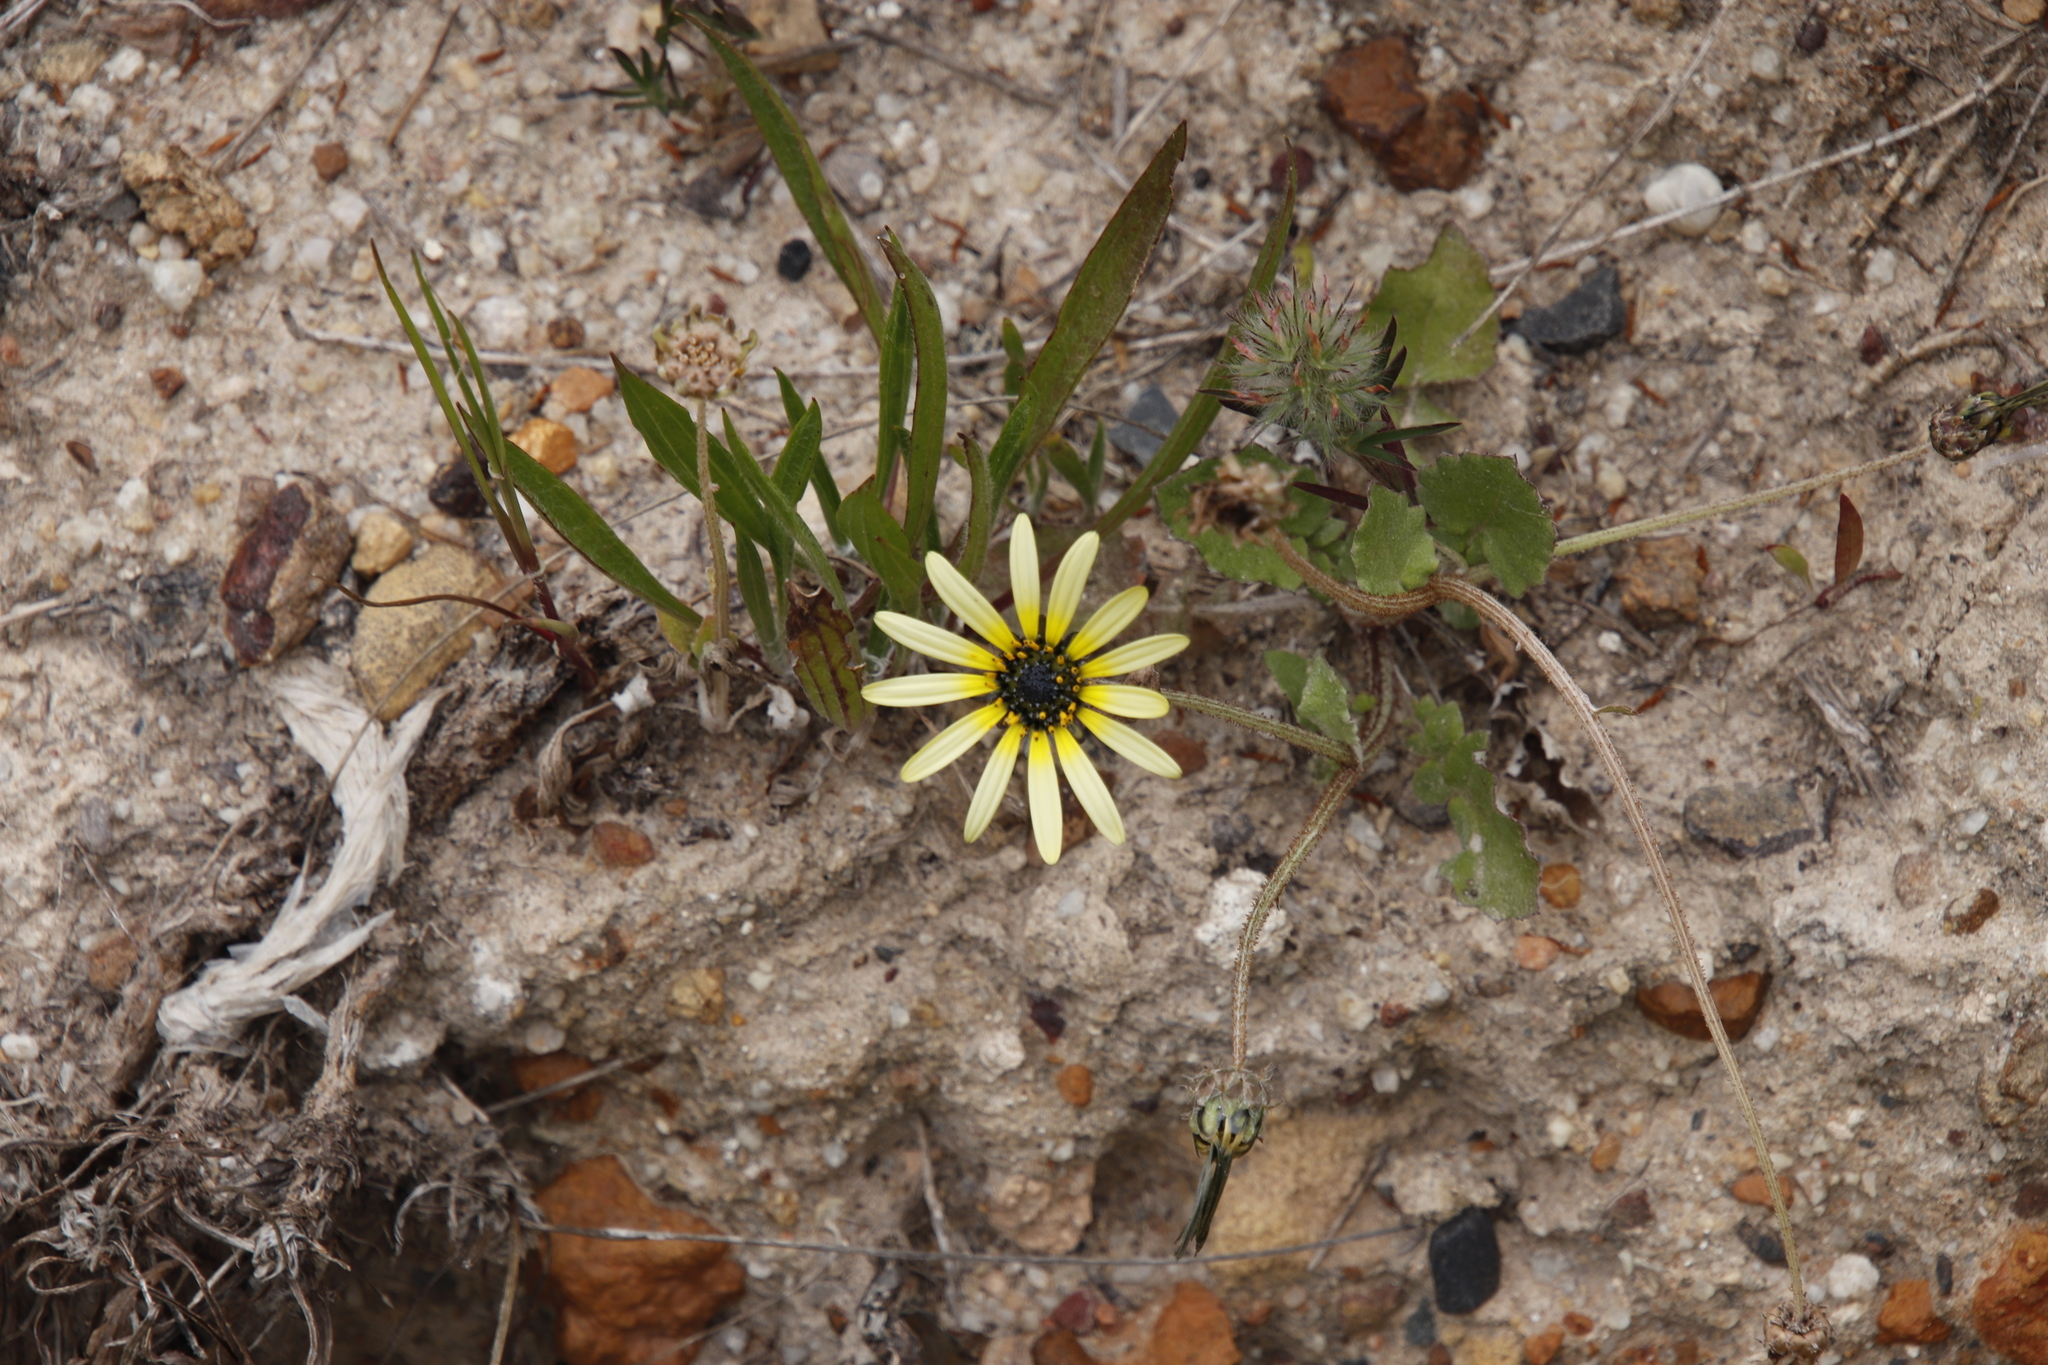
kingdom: Plantae
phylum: Tracheophyta
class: Magnoliopsida
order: Asterales
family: Asteraceae
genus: Arctotheca
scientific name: Arctotheca calendula
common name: Capeweed
